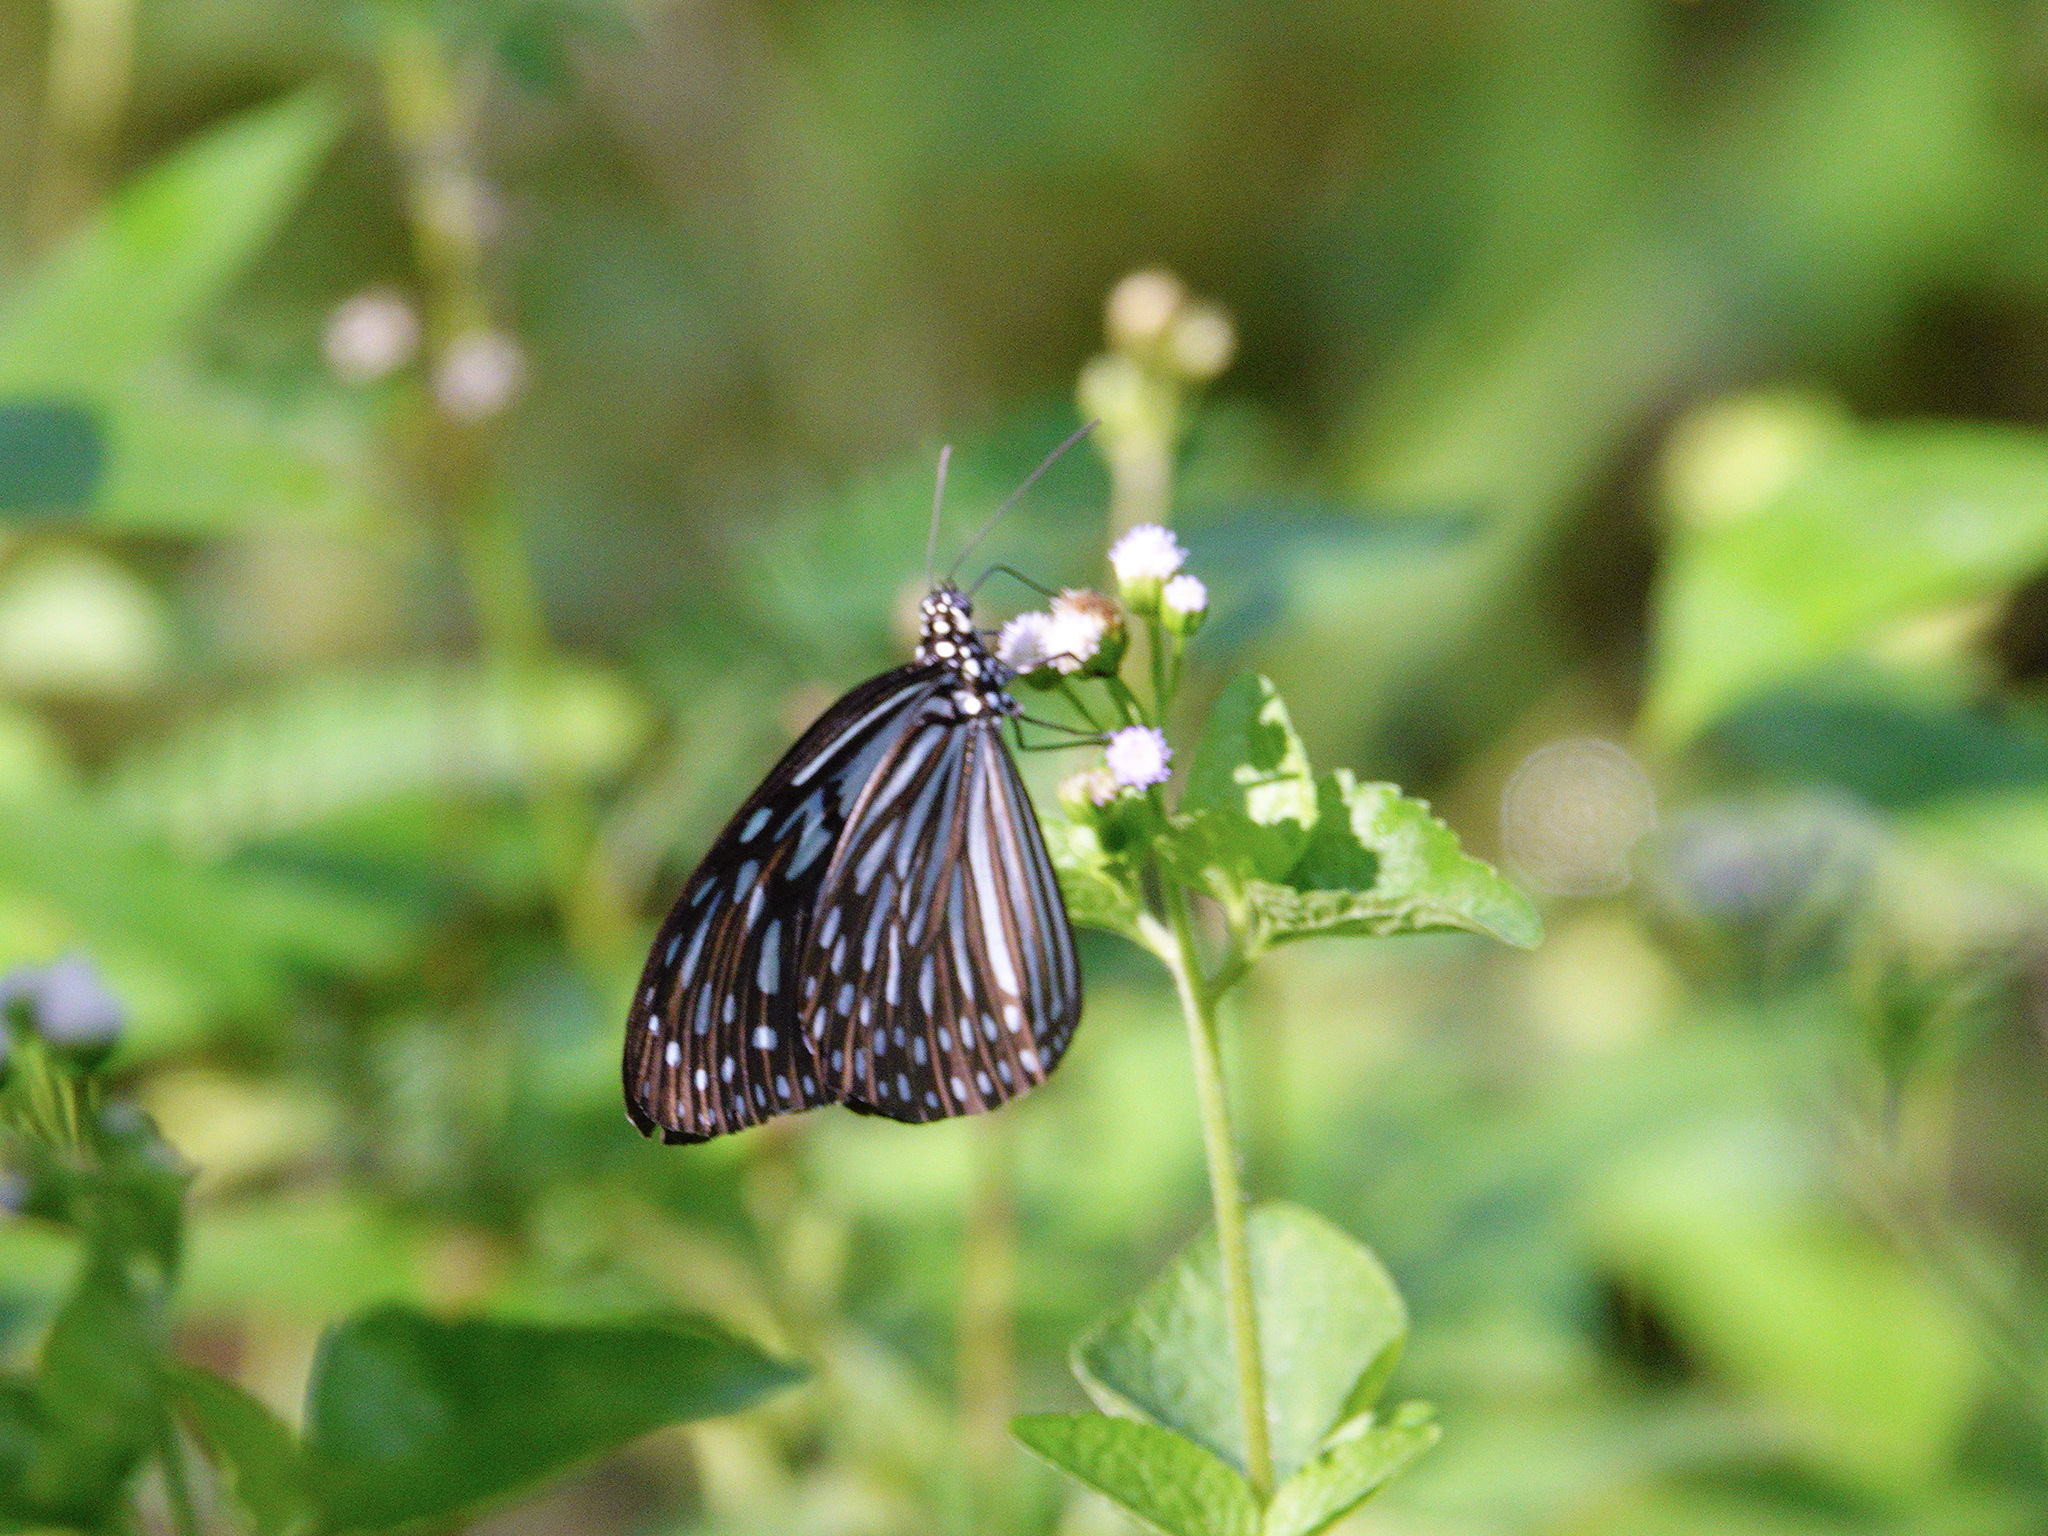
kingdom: Animalia
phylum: Arthropoda
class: Insecta
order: Lepidoptera
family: Nymphalidae
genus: Ideopsis
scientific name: Ideopsis vulgaris
